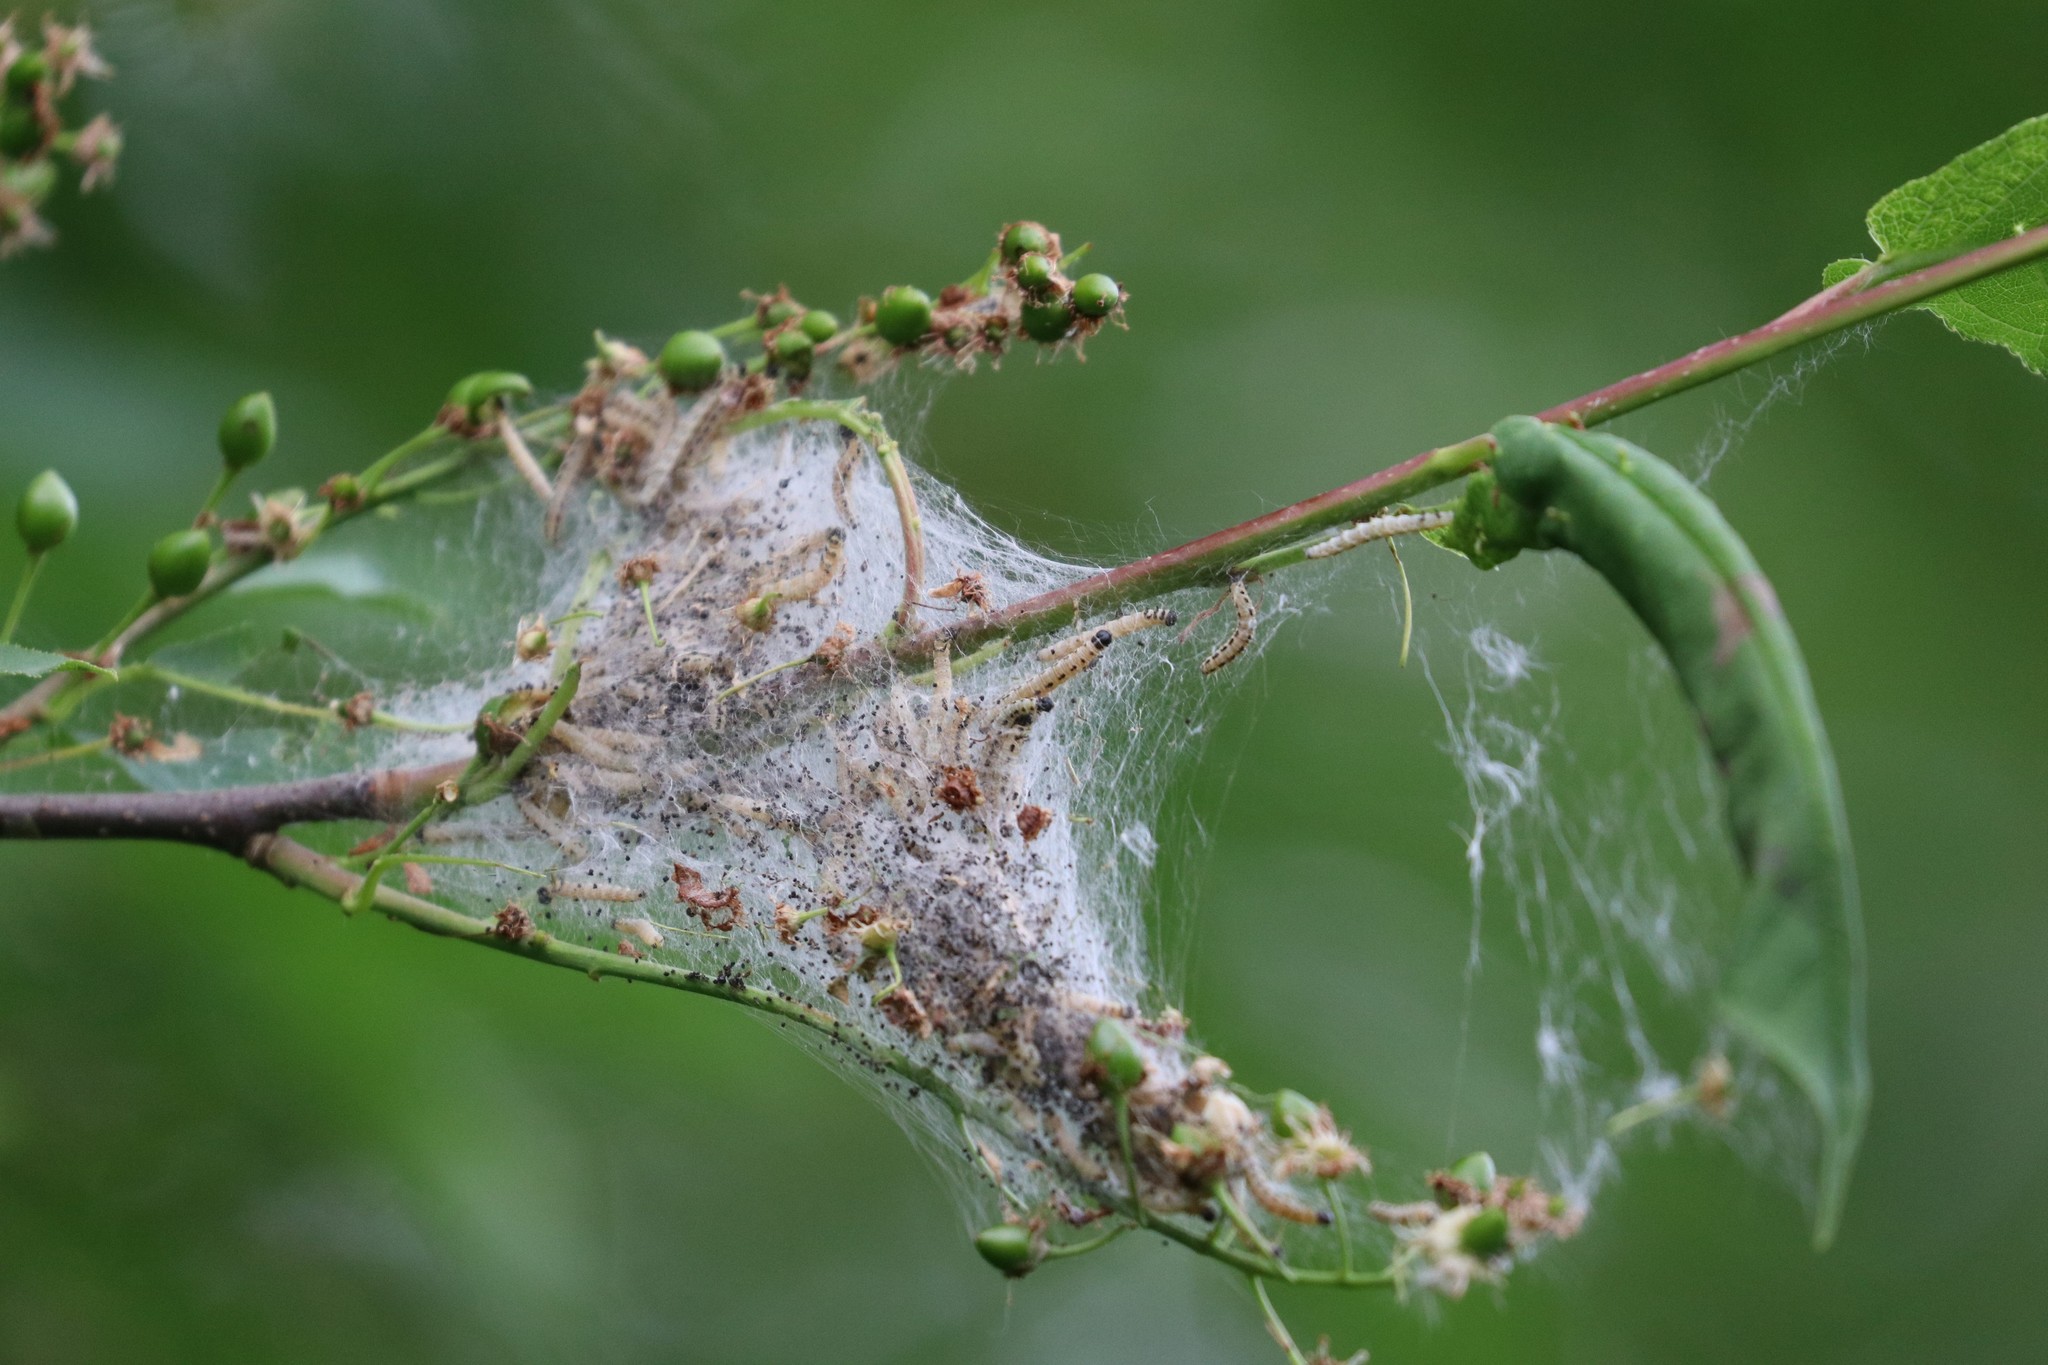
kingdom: Animalia
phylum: Arthropoda
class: Insecta
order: Lepidoptera
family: Yponomeutidae
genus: Yponomeuta
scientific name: Yponomeuta evonymella
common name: Bird-cherry ermine
